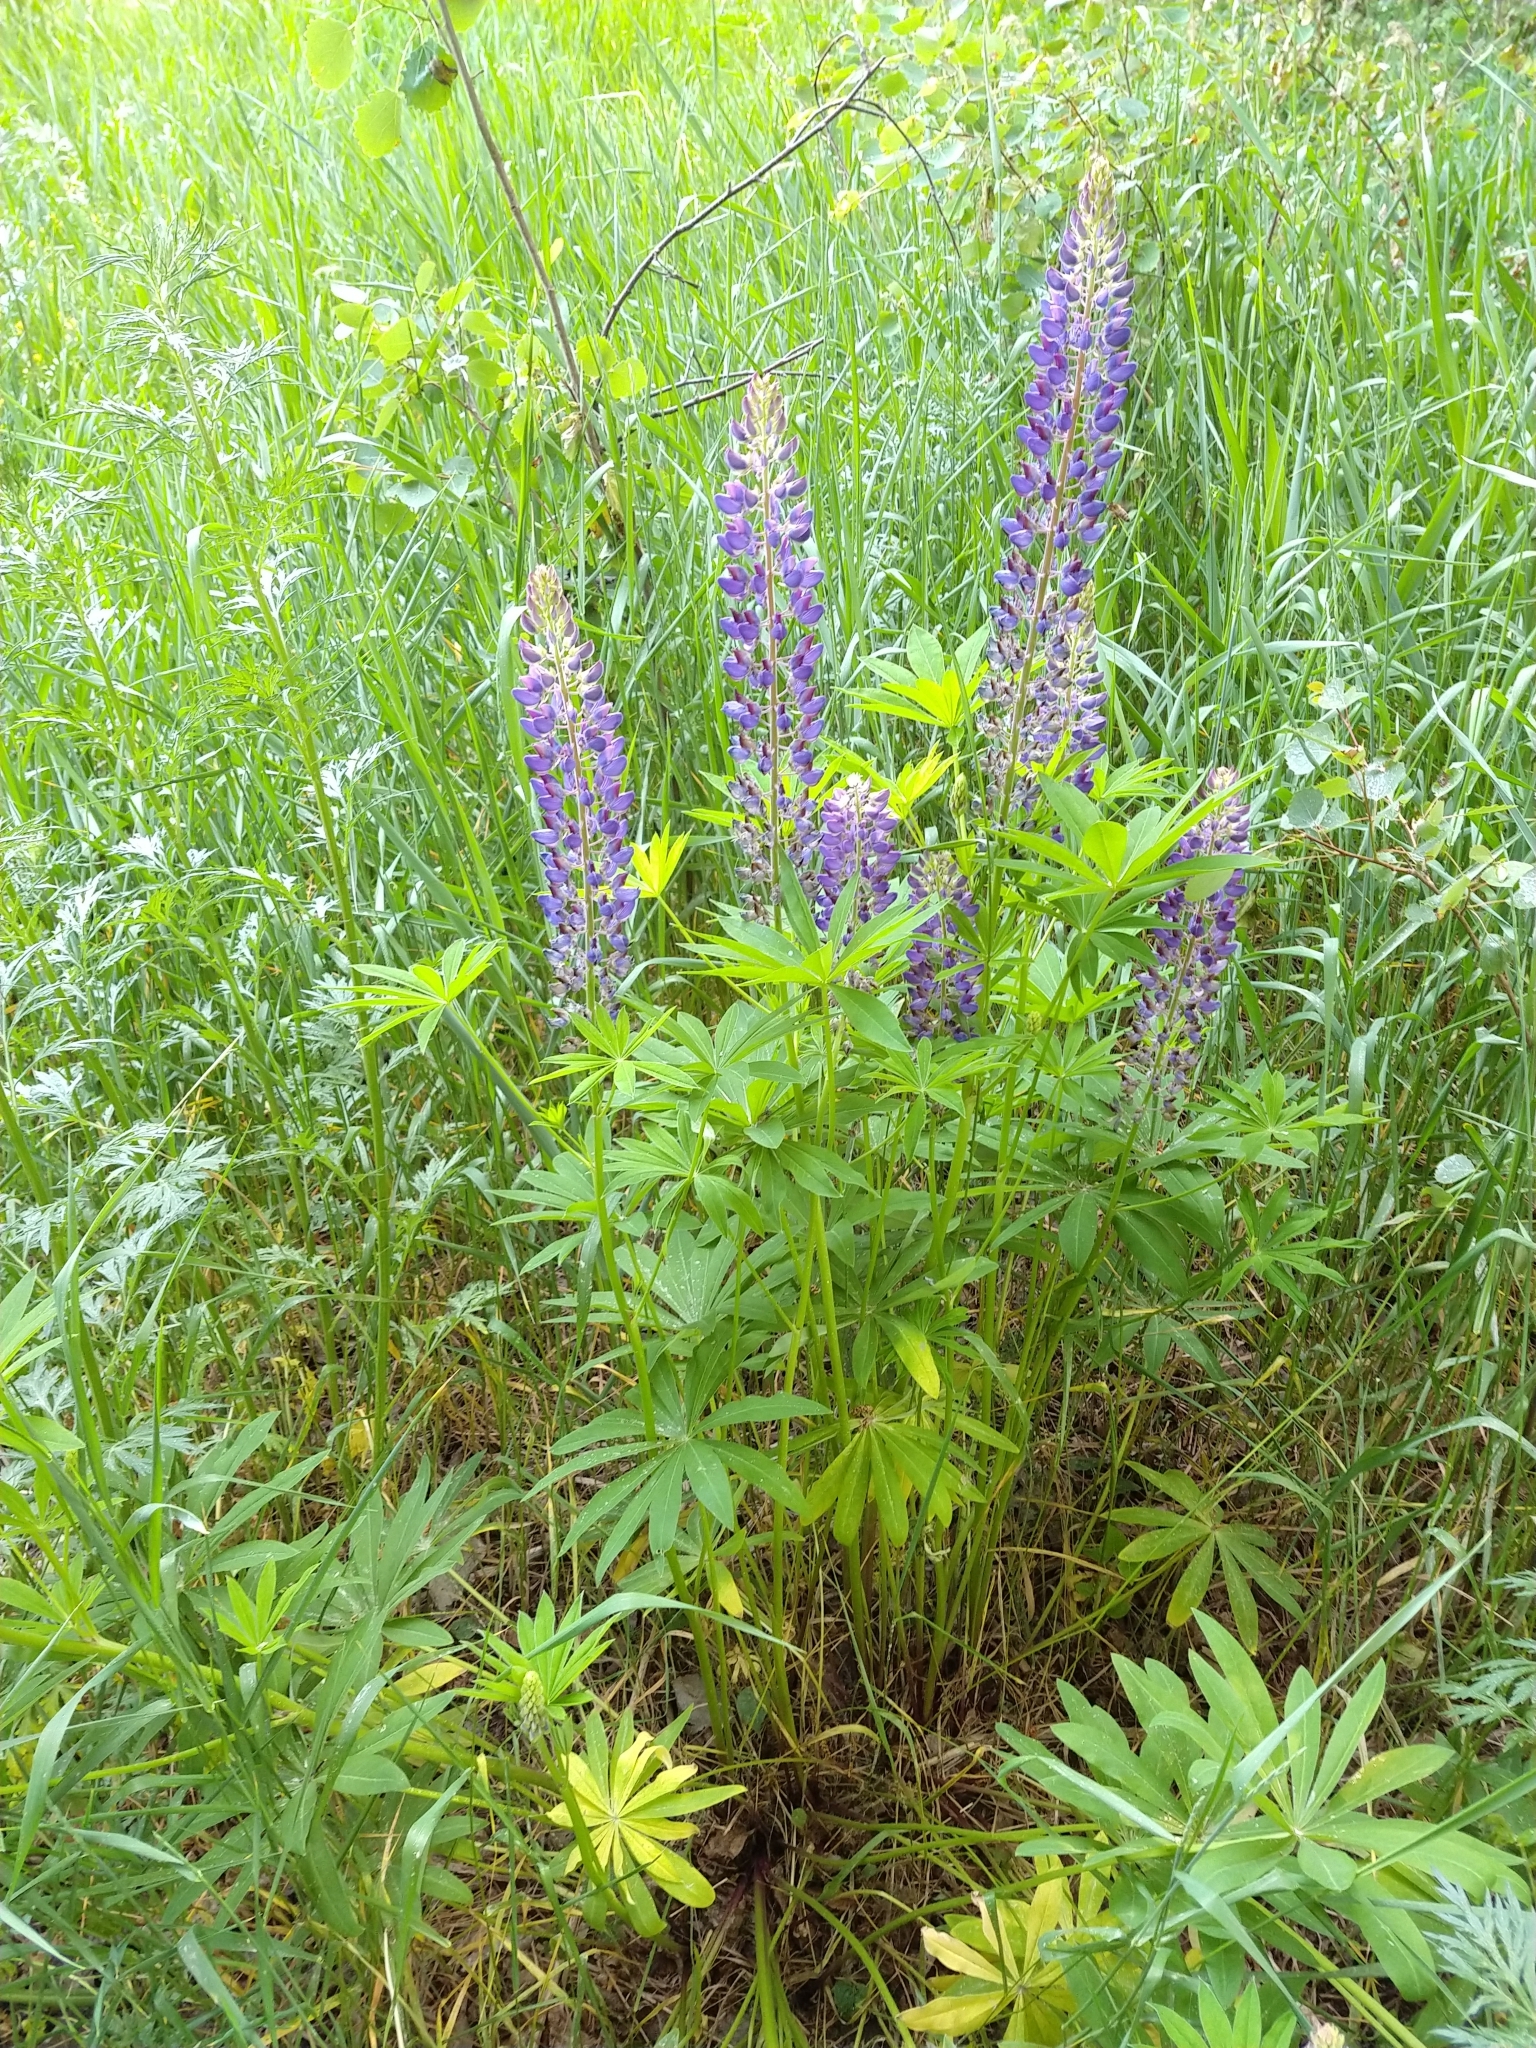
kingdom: Plantae
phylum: Tracheophyta
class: Magnoliopsida
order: Fabales
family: Fabaceae
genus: Lupinus
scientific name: Lupinus polyphyllus
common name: Garden lupin
